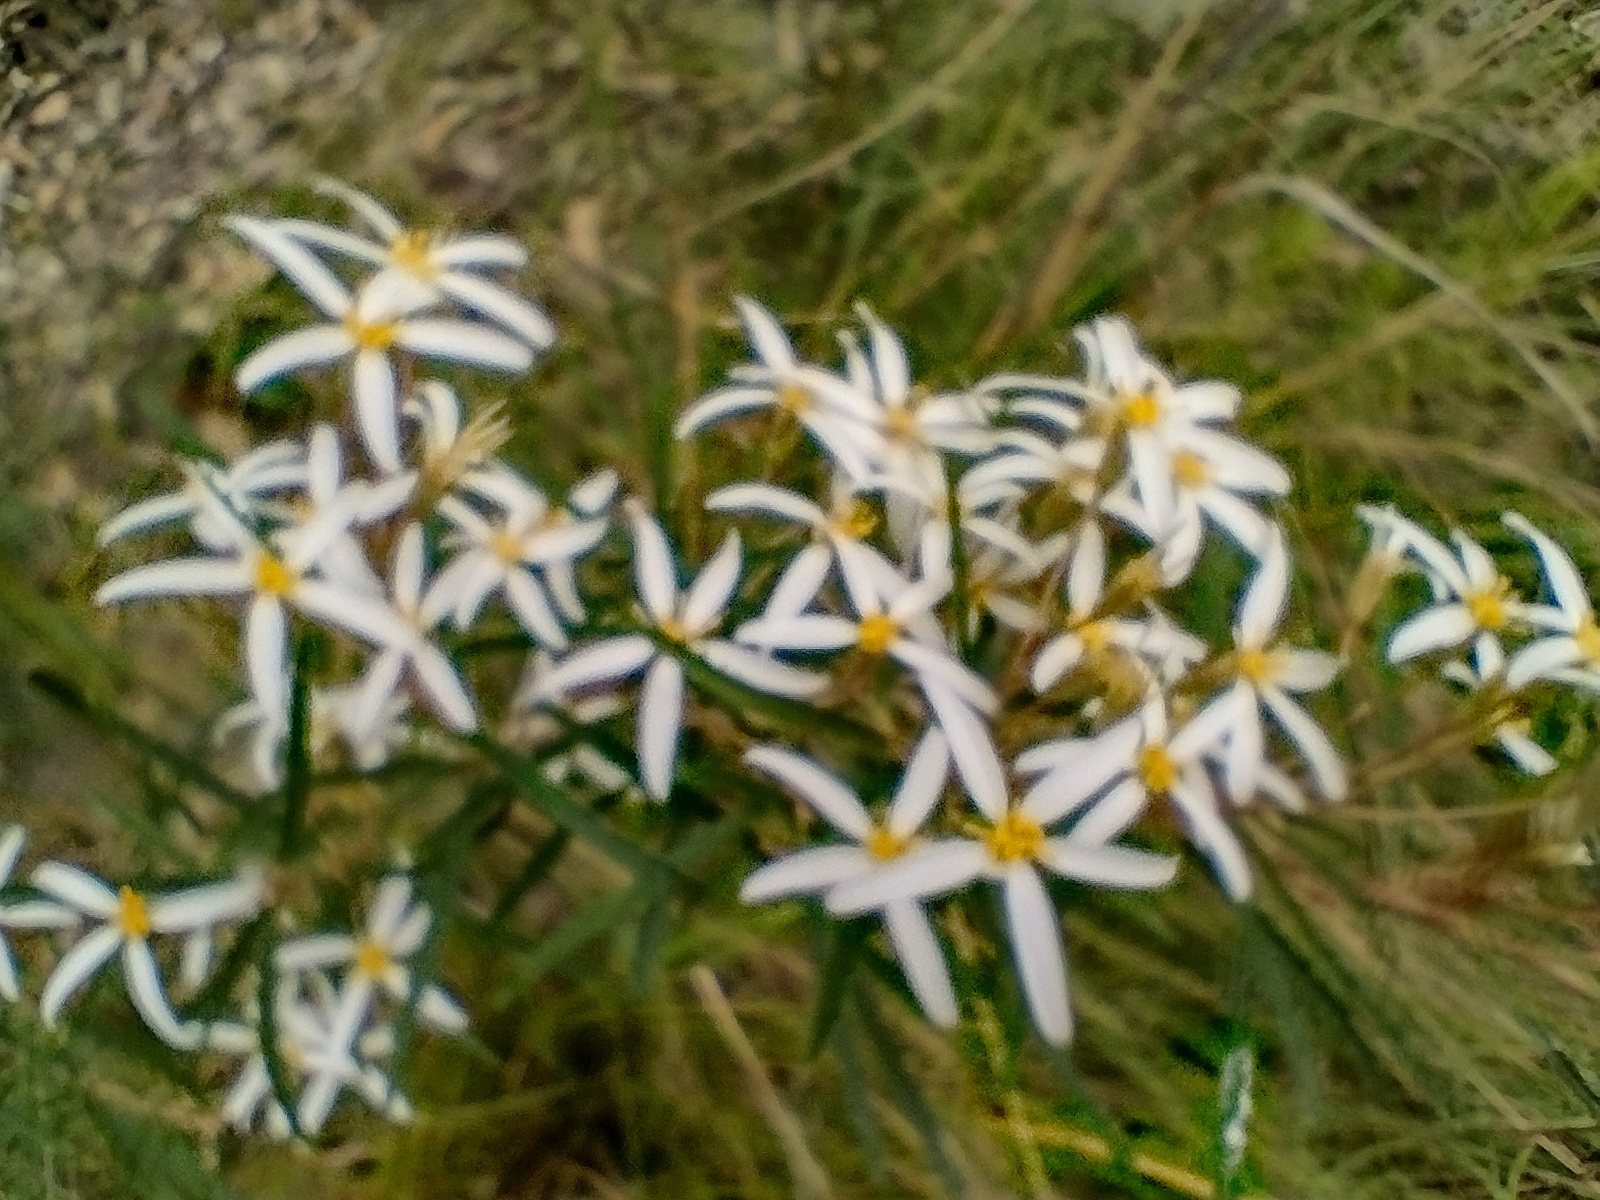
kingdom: Plantae
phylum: Tracheophyta
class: Magnoliopsida
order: Asterales
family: Asteraceae
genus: Olearia
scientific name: Olearia erubescens
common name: Moth daisybush
